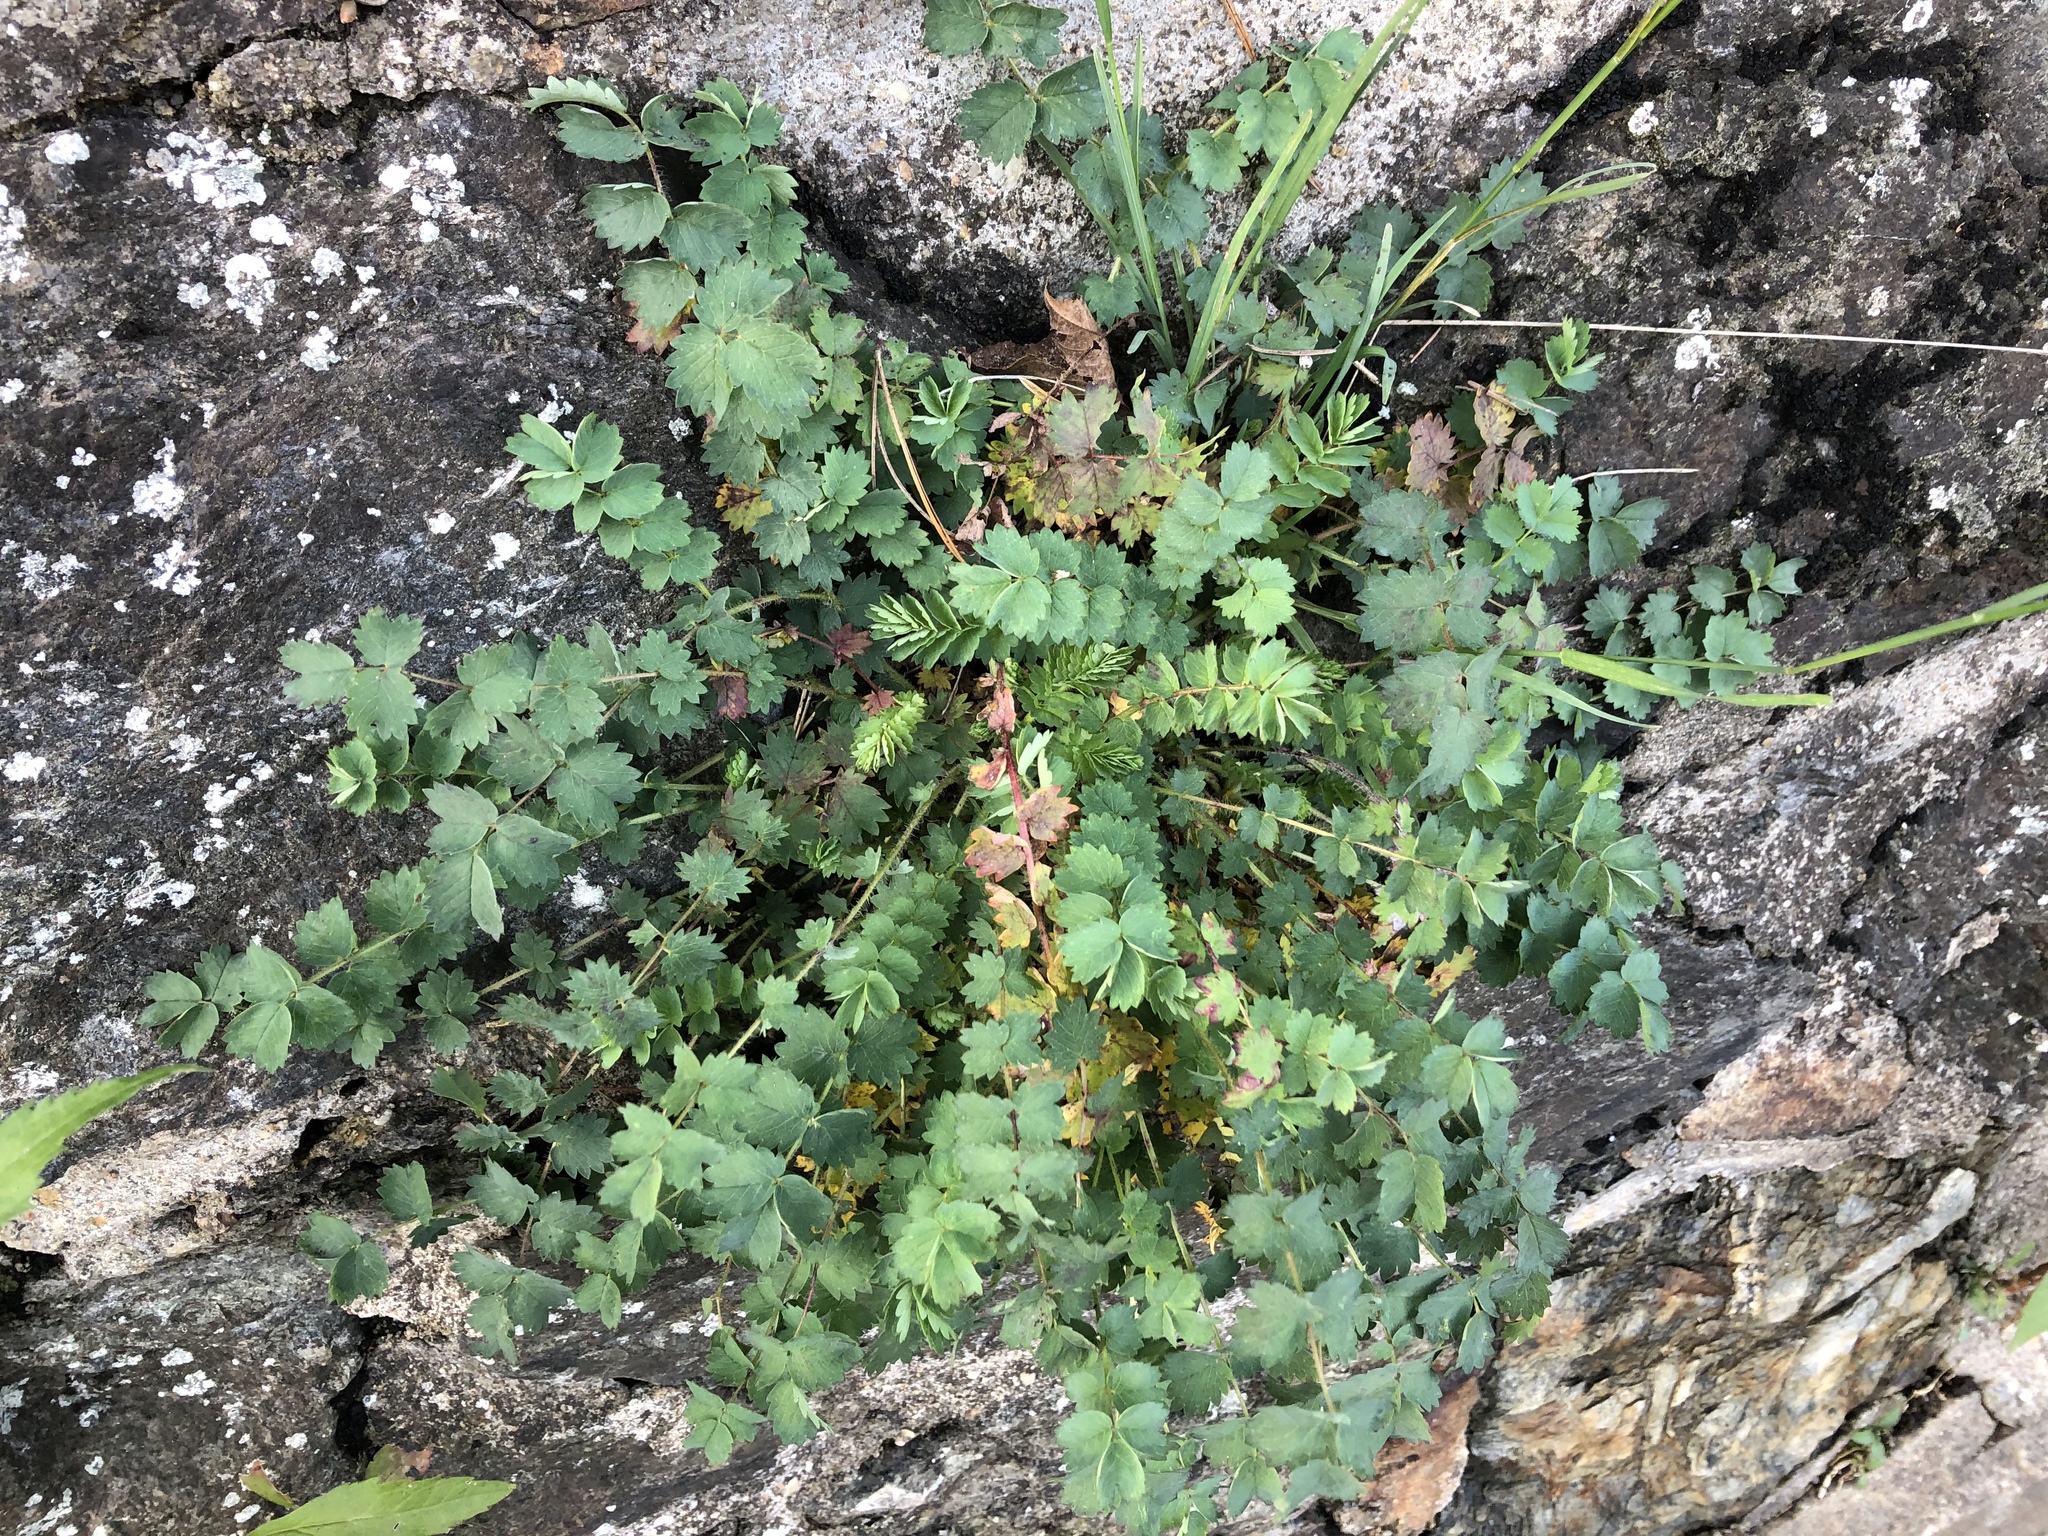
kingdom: Plantae
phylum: Tracheophyta
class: Magnoliopsida
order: Rosales
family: Rosaceae
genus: Poterium
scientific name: Poterium sanguisorba
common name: Salad burnet
